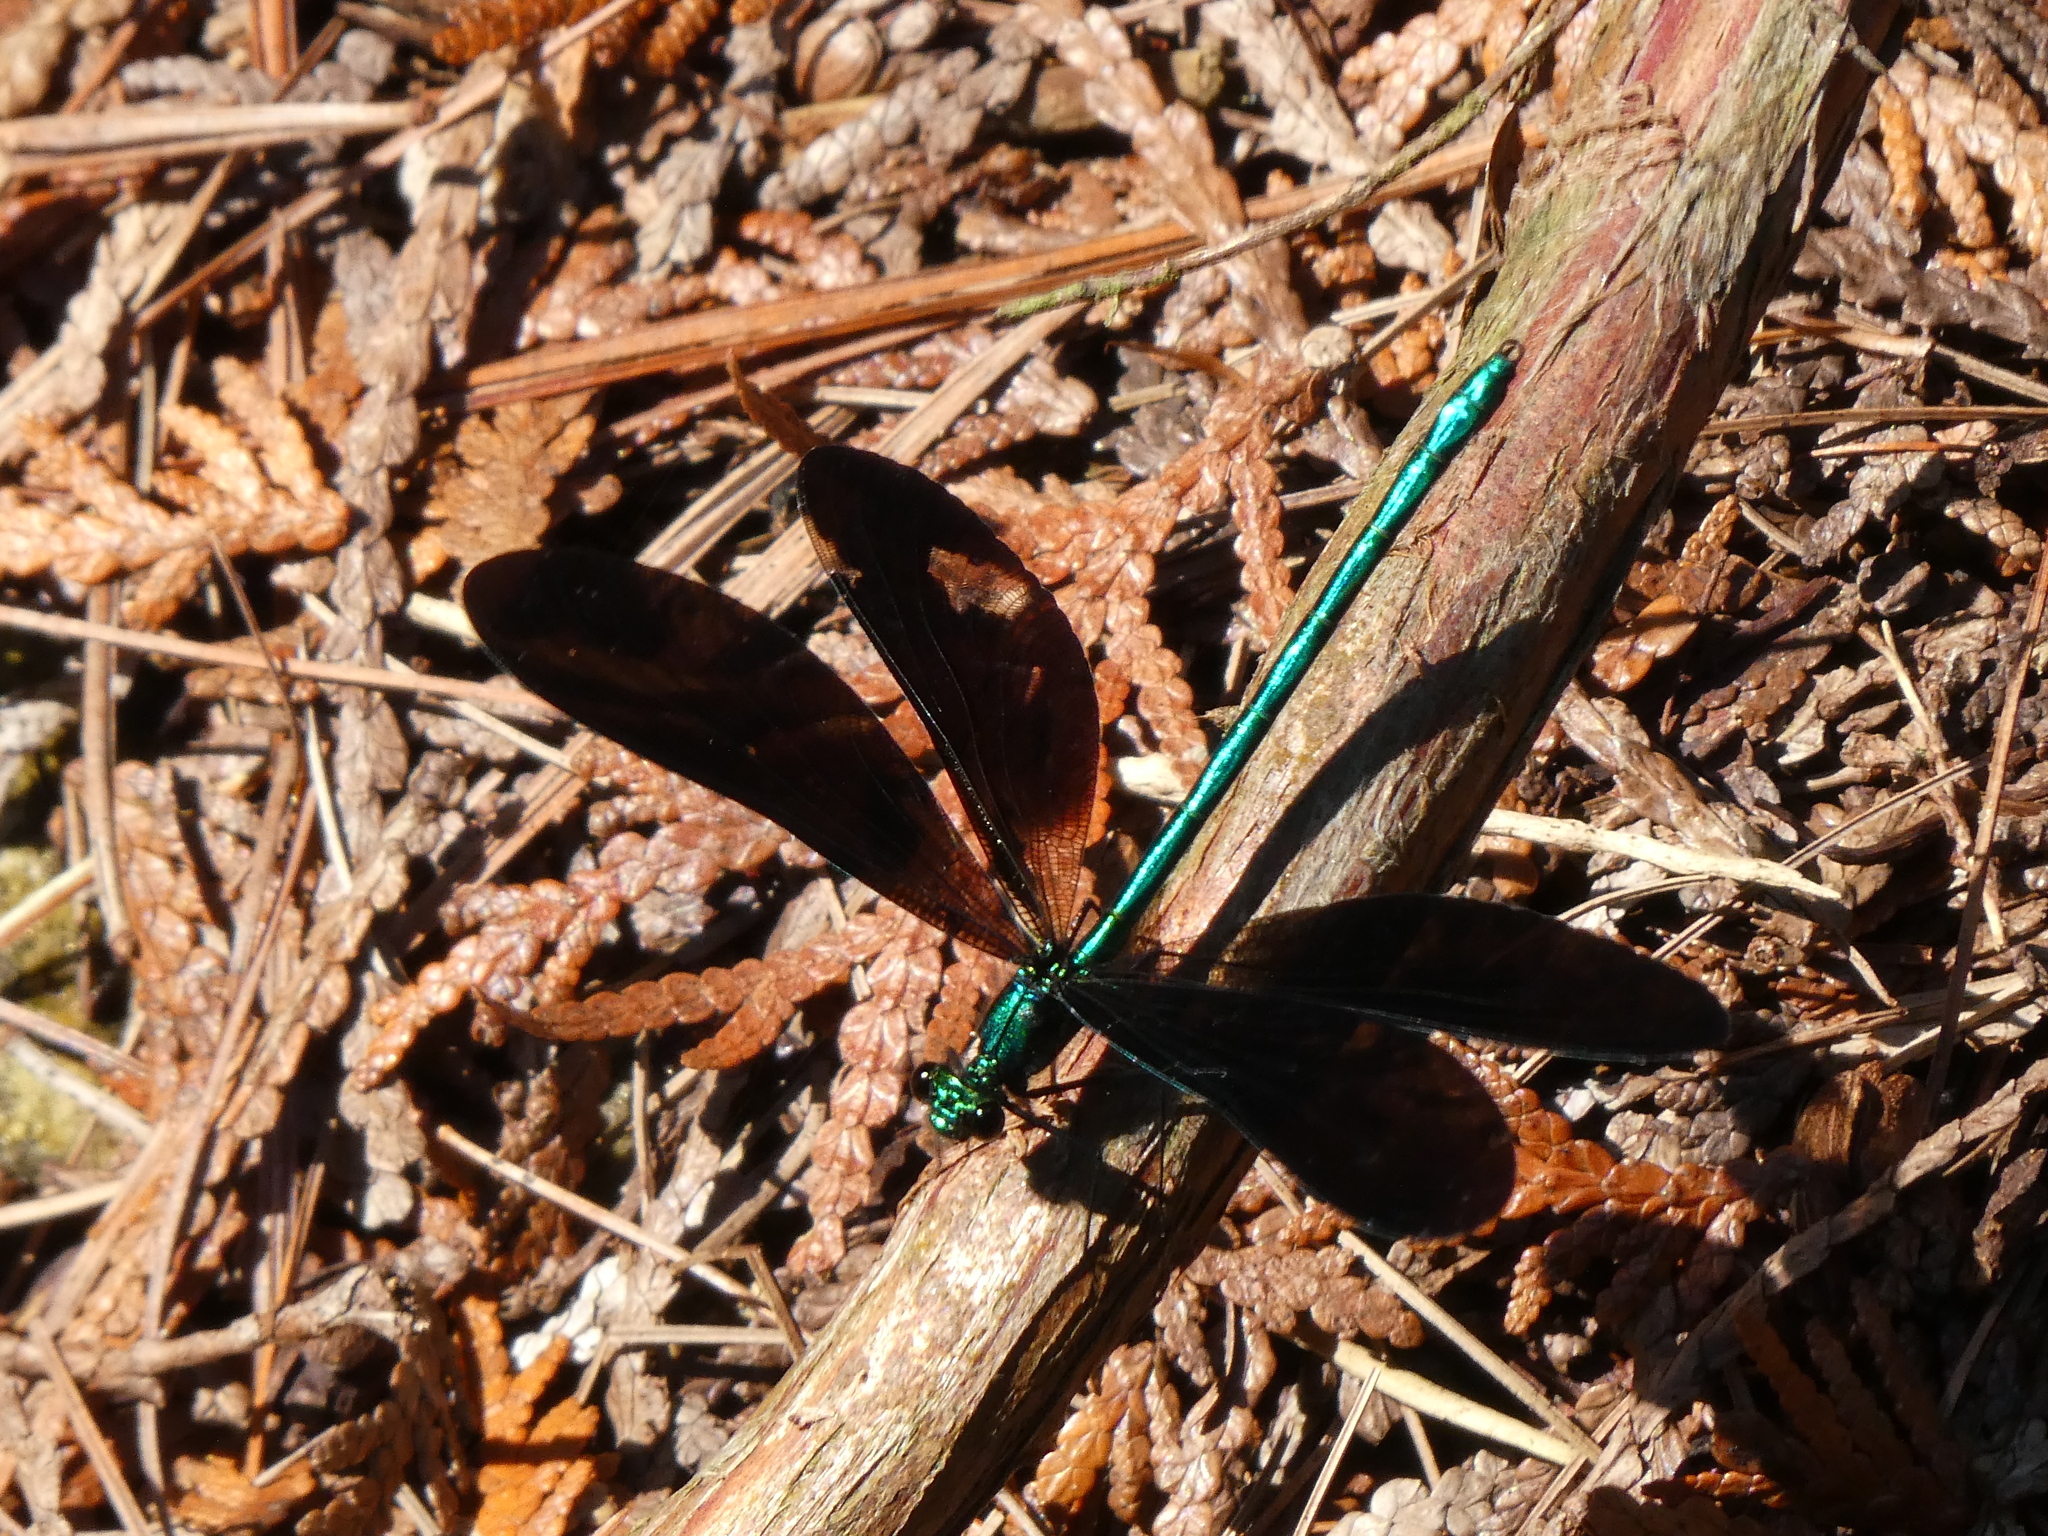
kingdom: Animalia
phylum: Arthropoda
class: Insecta
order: Odonata
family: Calopterygidae
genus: Calopteryx
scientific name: Calopteryx maculata
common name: Ebony jewelwing
